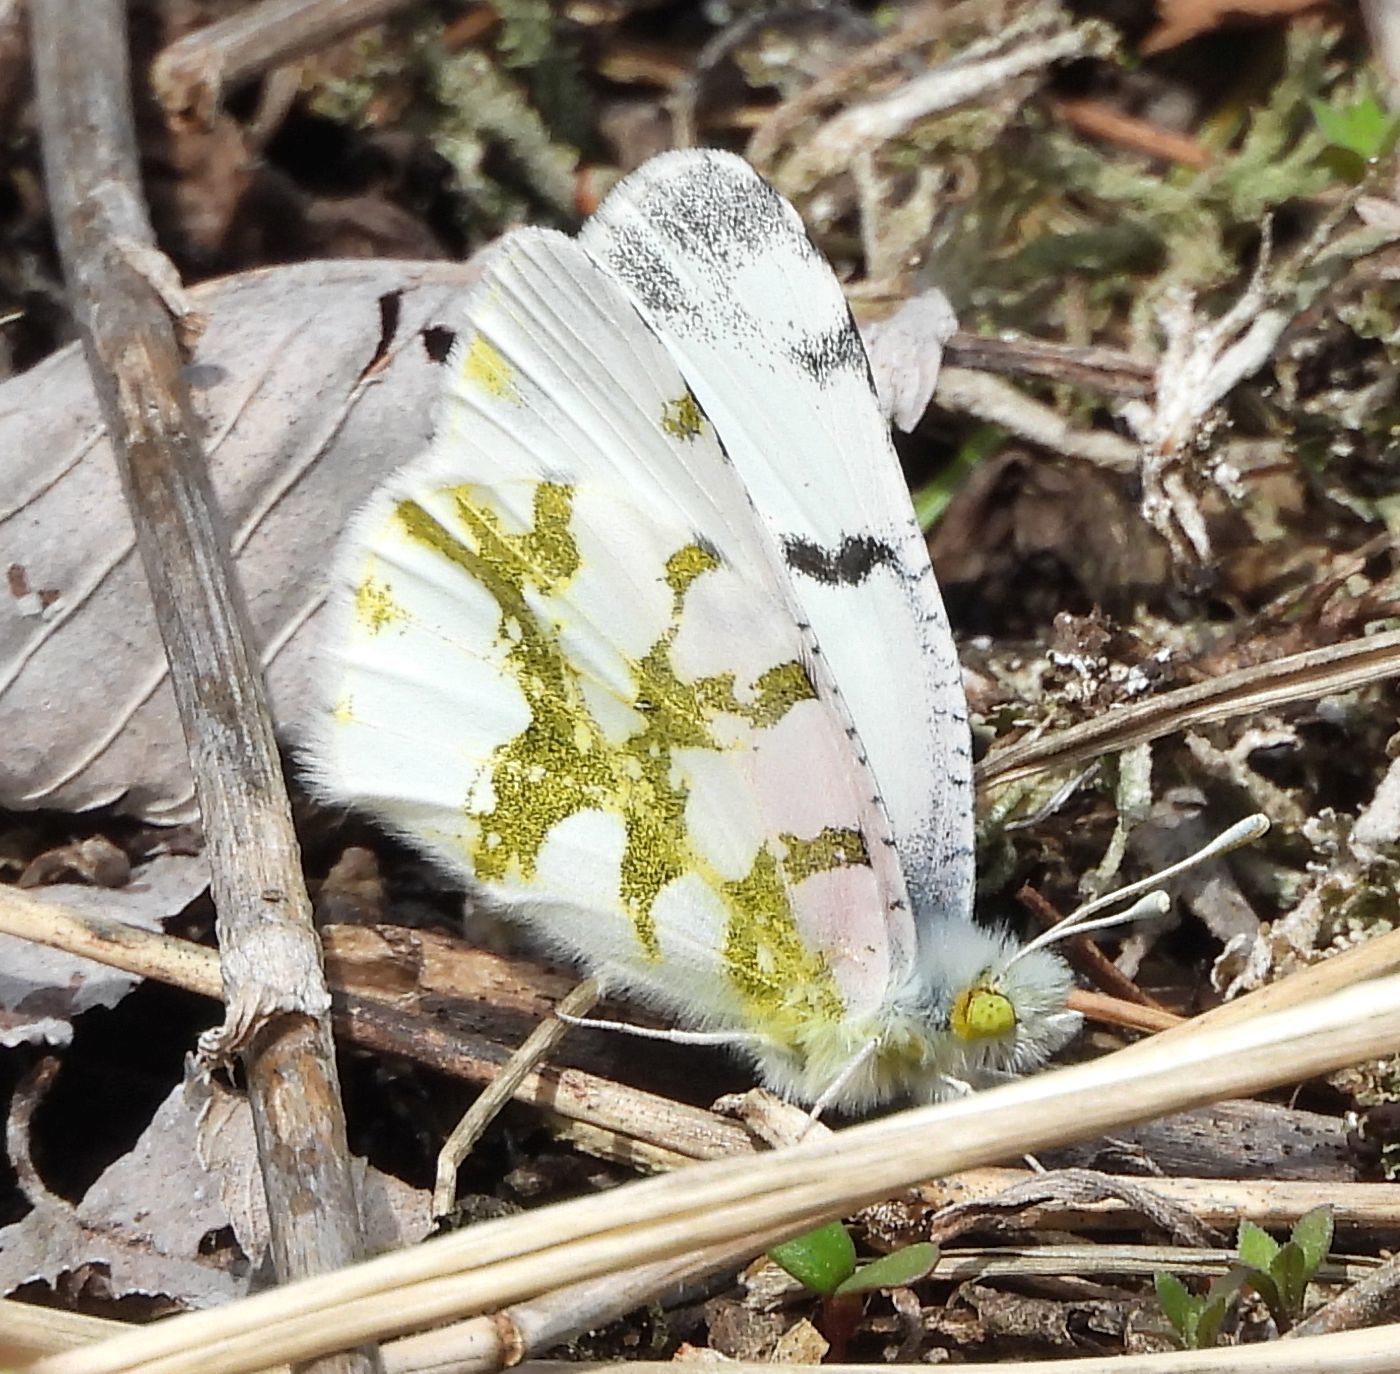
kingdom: Animalia
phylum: Arthropoda
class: Insecta
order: Lepidoptera
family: Pieridae
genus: Euchloe
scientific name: Euchloe olympia
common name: Olympia
